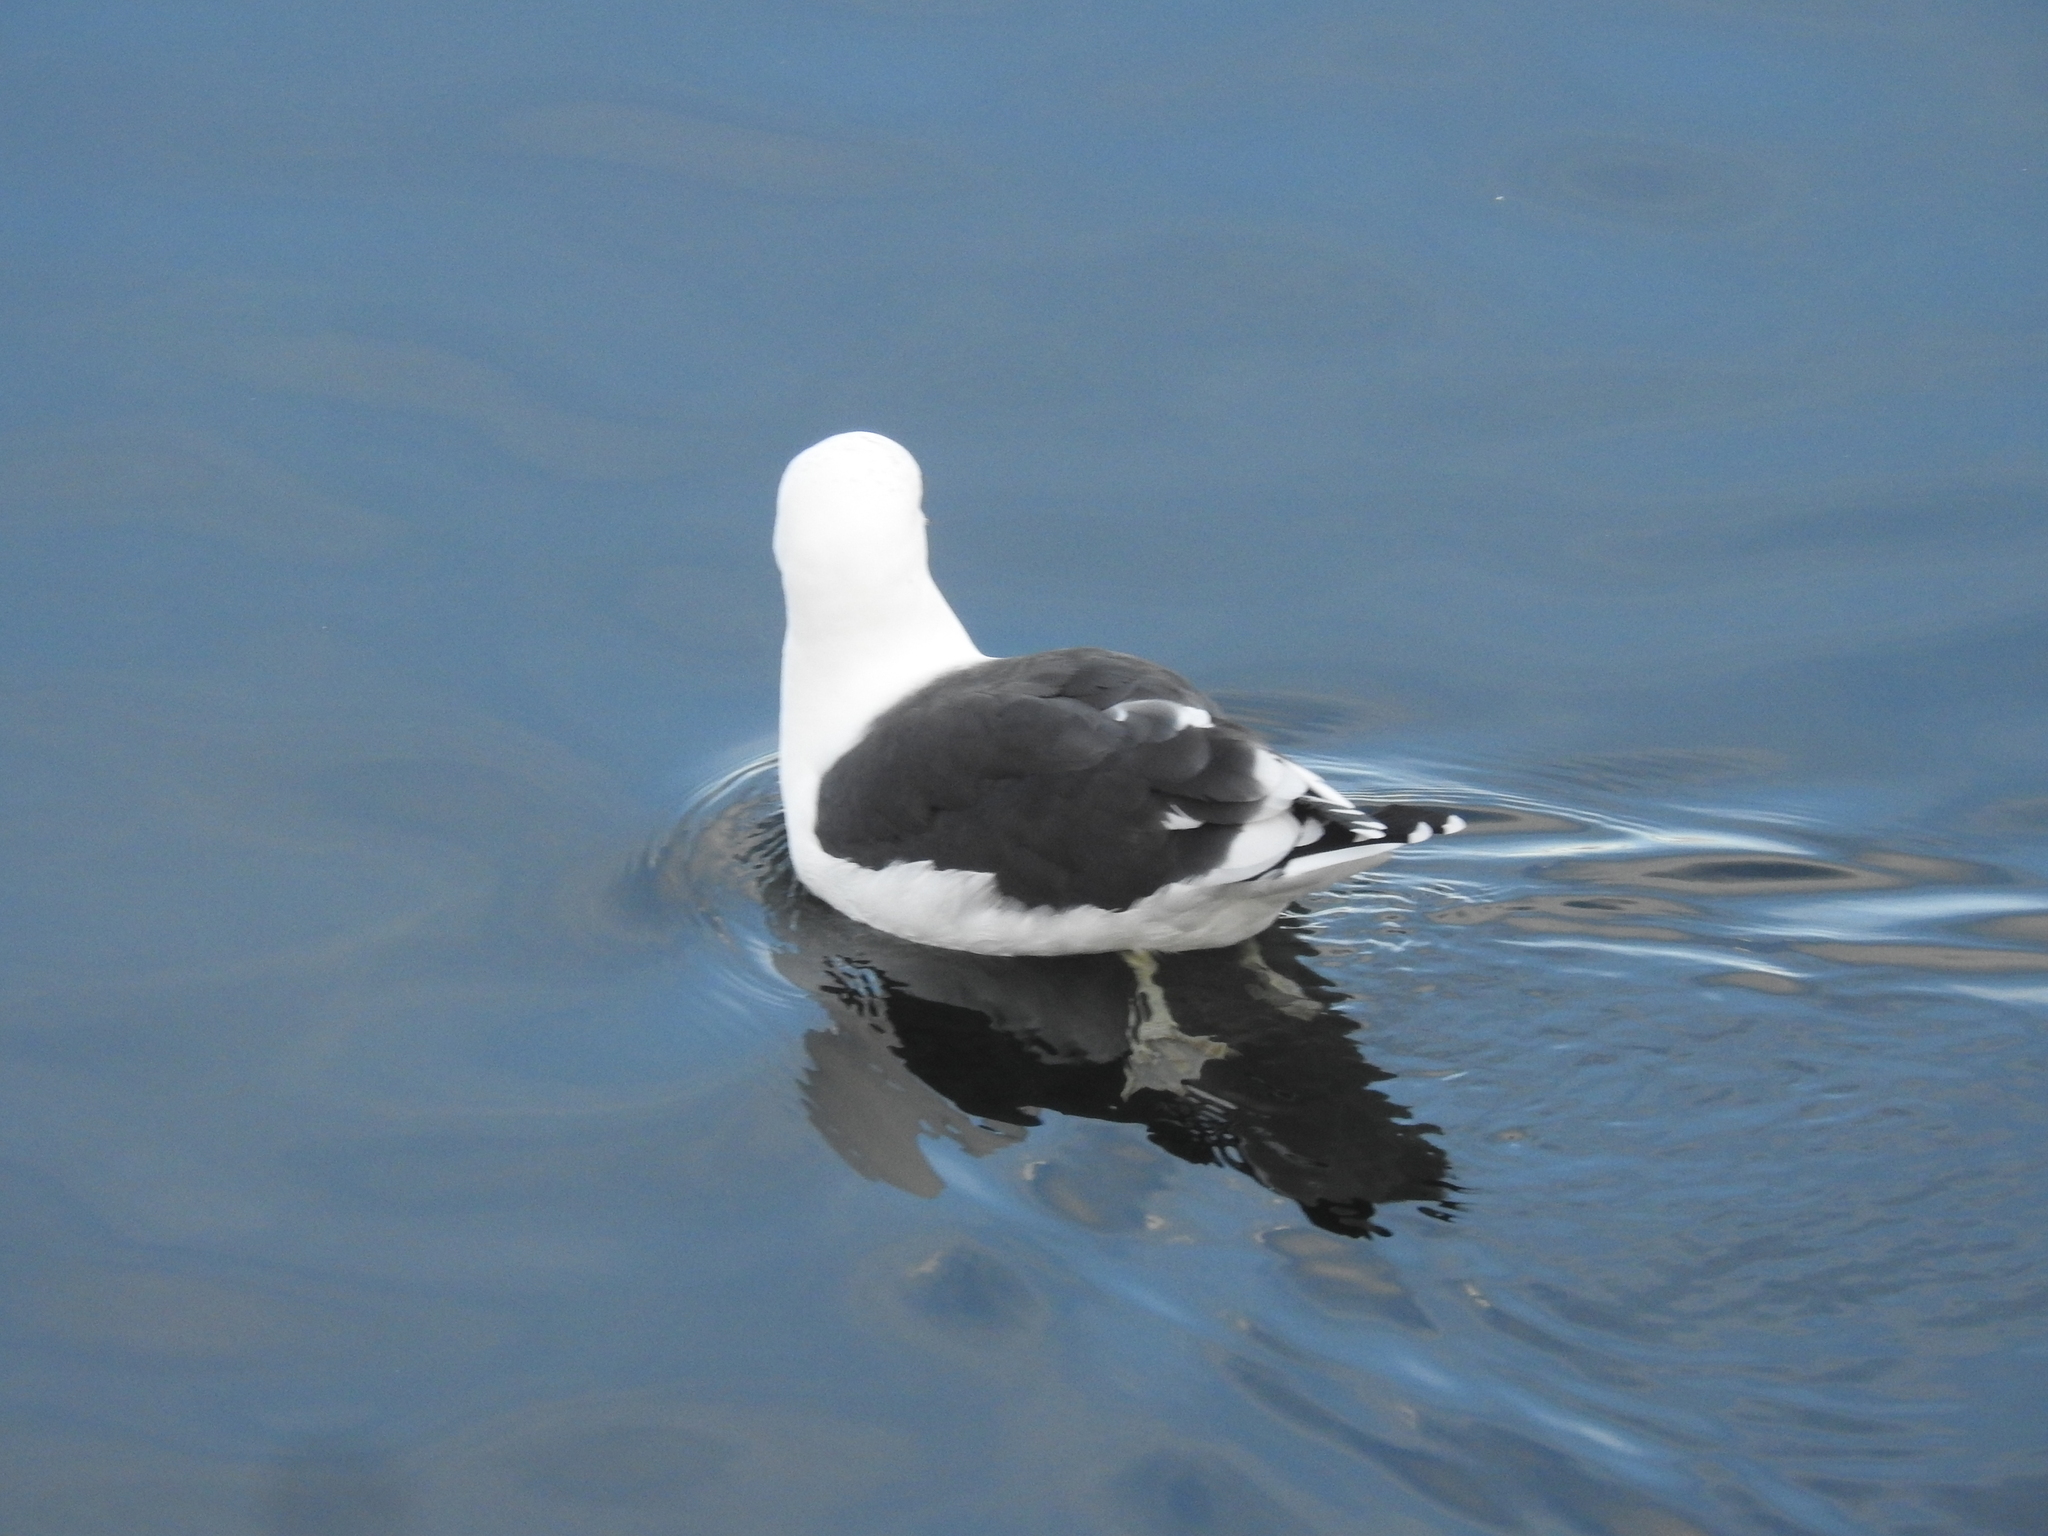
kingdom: Animalia
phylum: Chordata
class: Aves
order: Charadriiformes
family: Laridae
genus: Larus
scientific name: Larus dominicanus
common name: Kelp gull
